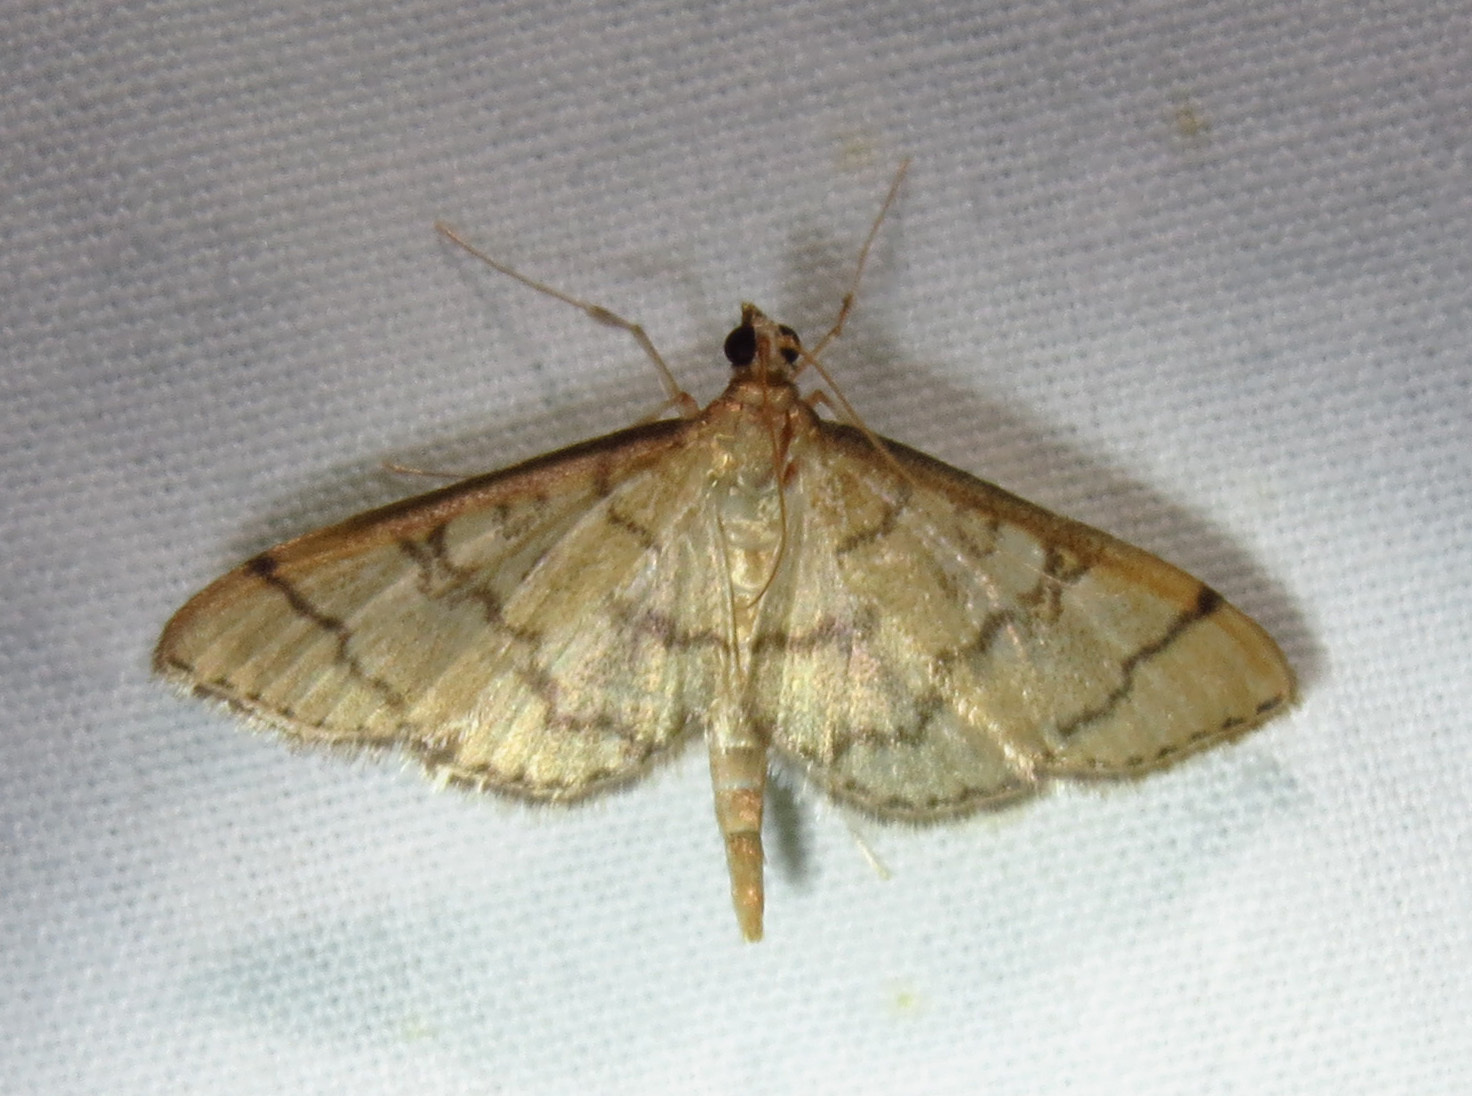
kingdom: Animalia
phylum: Arthropoda
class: Insecta
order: Lepidoptera
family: Crambidae
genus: Lamprosema
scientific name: Lamprosema Blepharomastix ranalis
